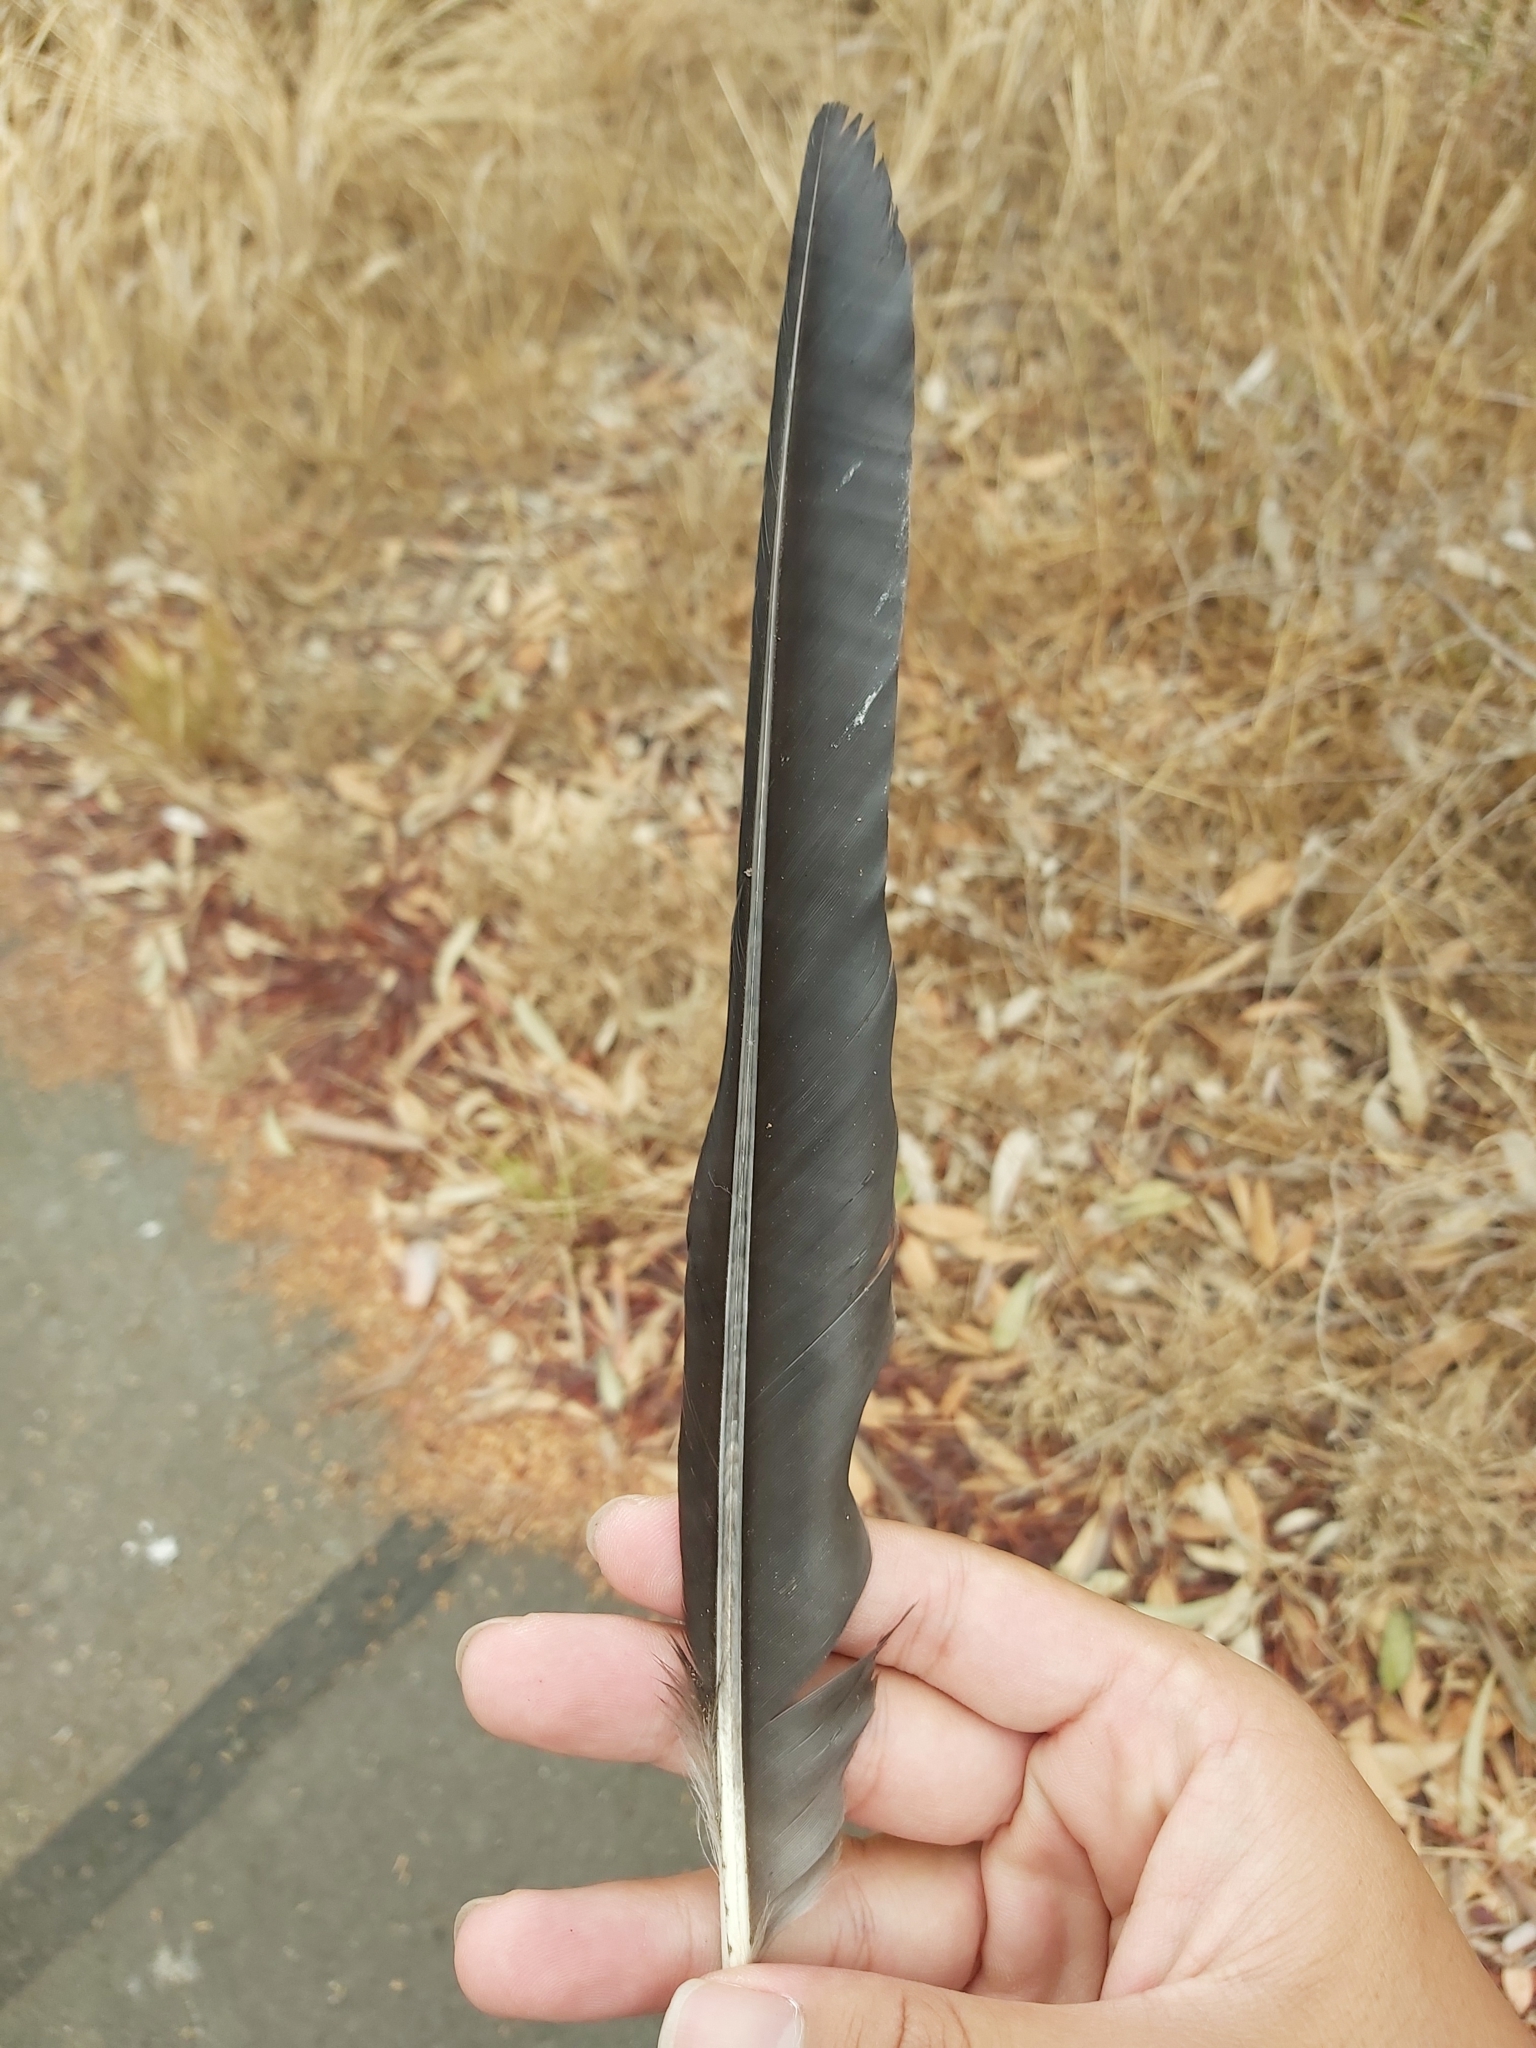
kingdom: Animalia
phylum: Chordata
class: Aves
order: Passeriformes
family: Corvidae
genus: Corvus
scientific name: Corvus coronoides
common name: Australian raven
